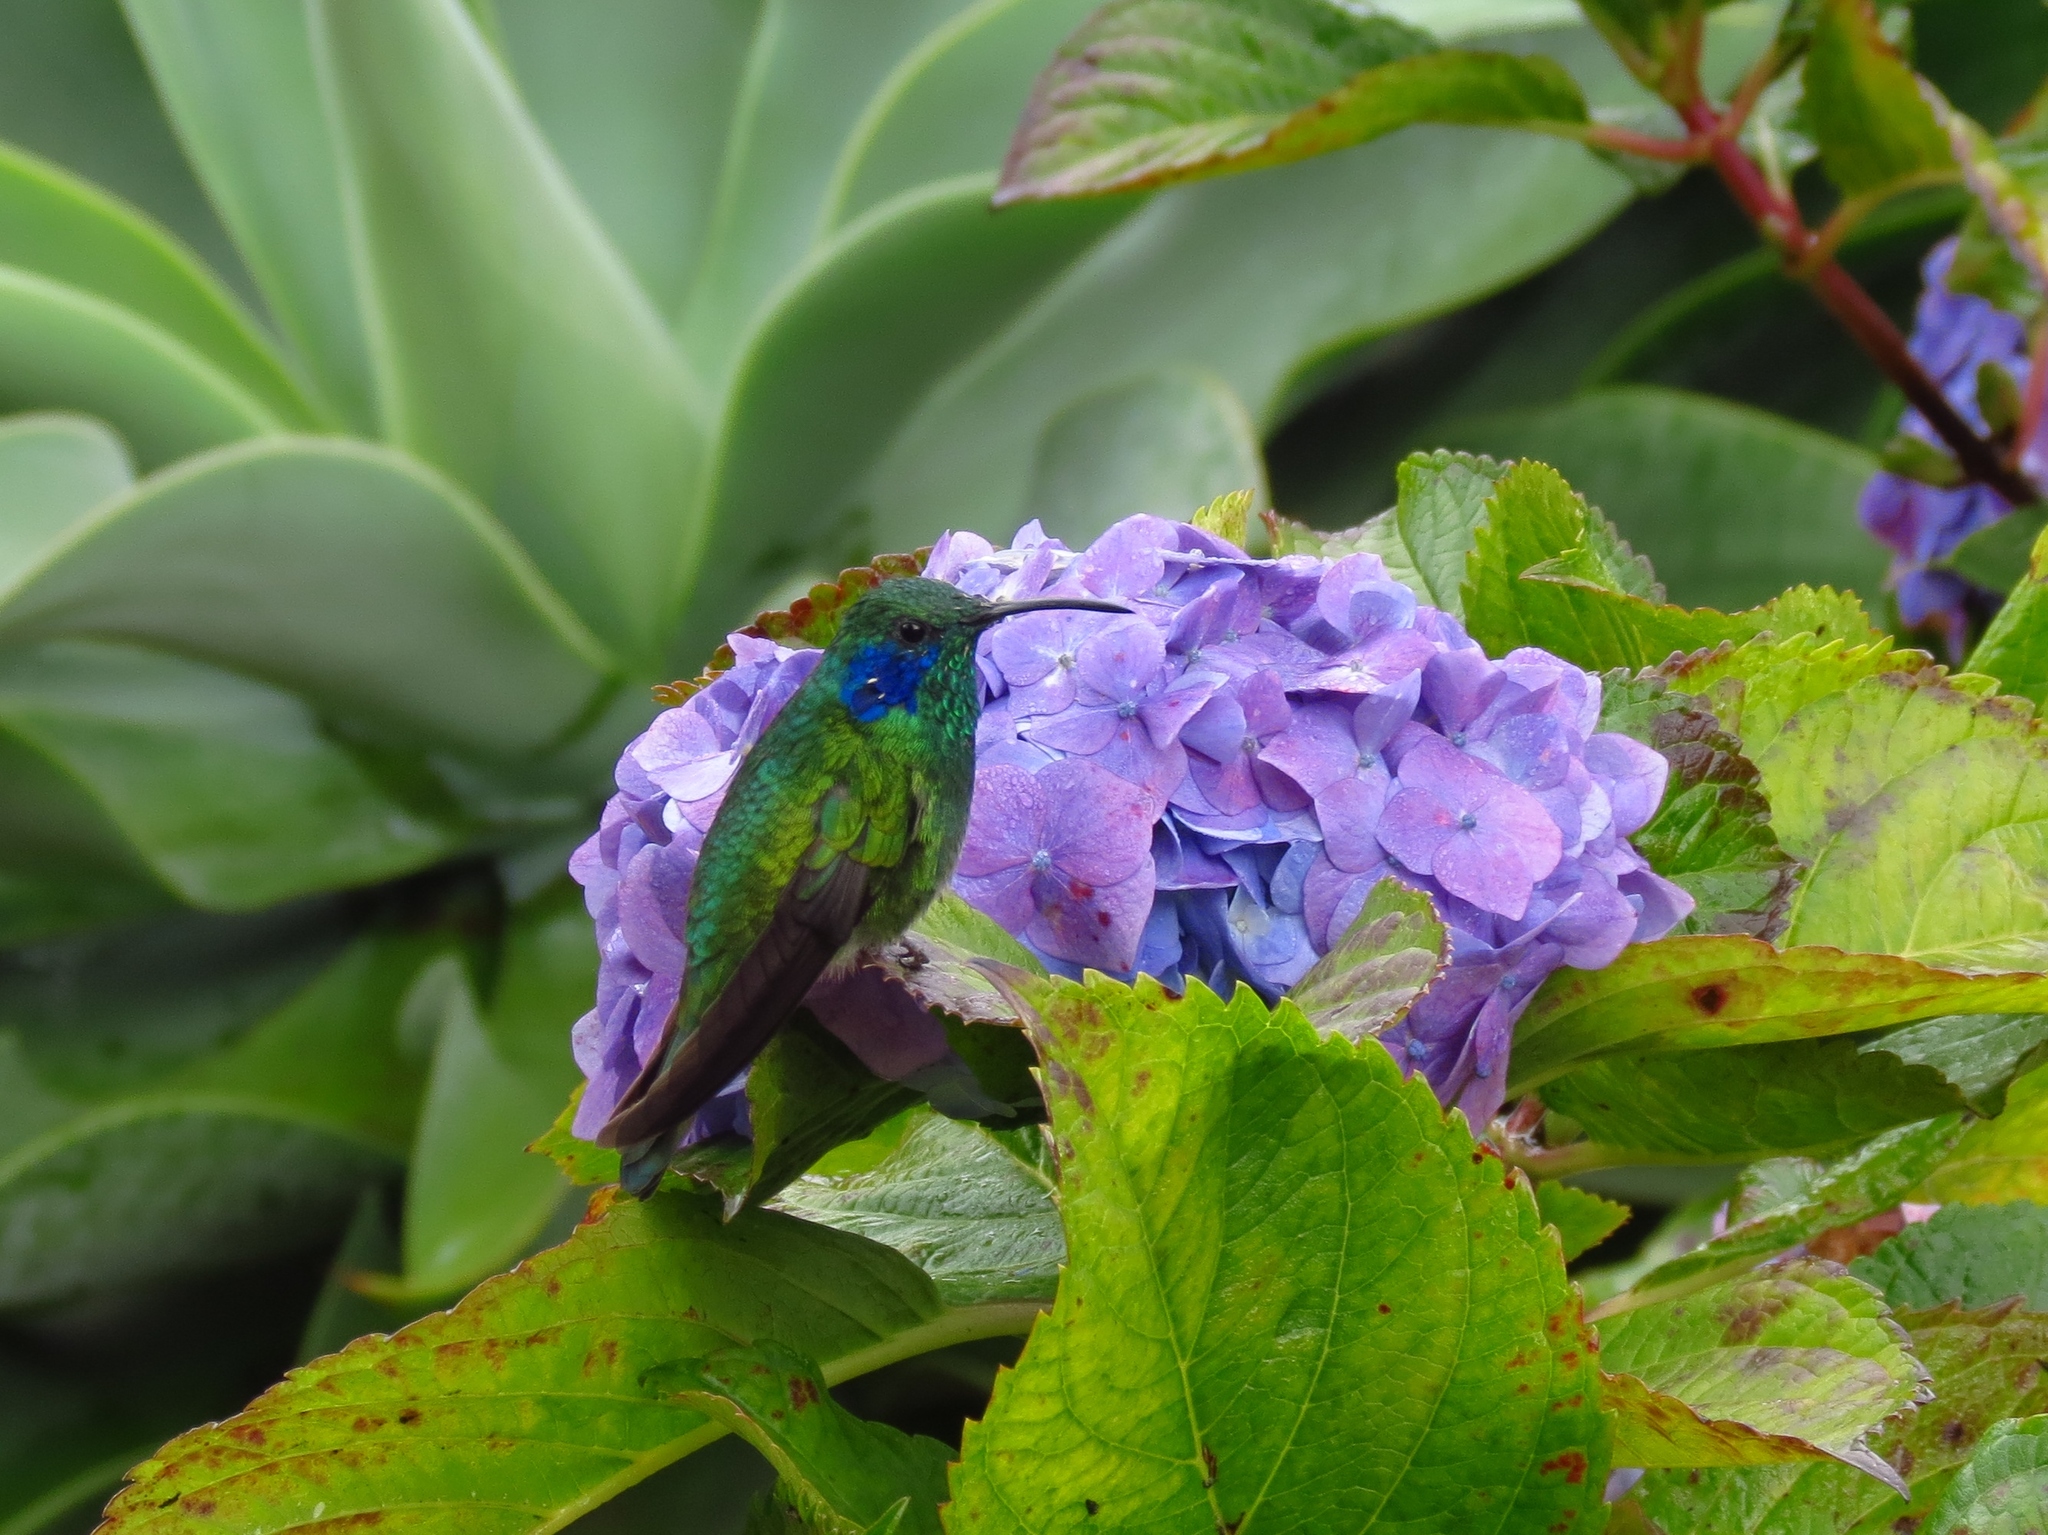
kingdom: Animalia
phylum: Chordata
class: Aves
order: Apodiformes
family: Trochilidae
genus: Colibri
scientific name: Colibri cyanotus
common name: Lesser violetear
